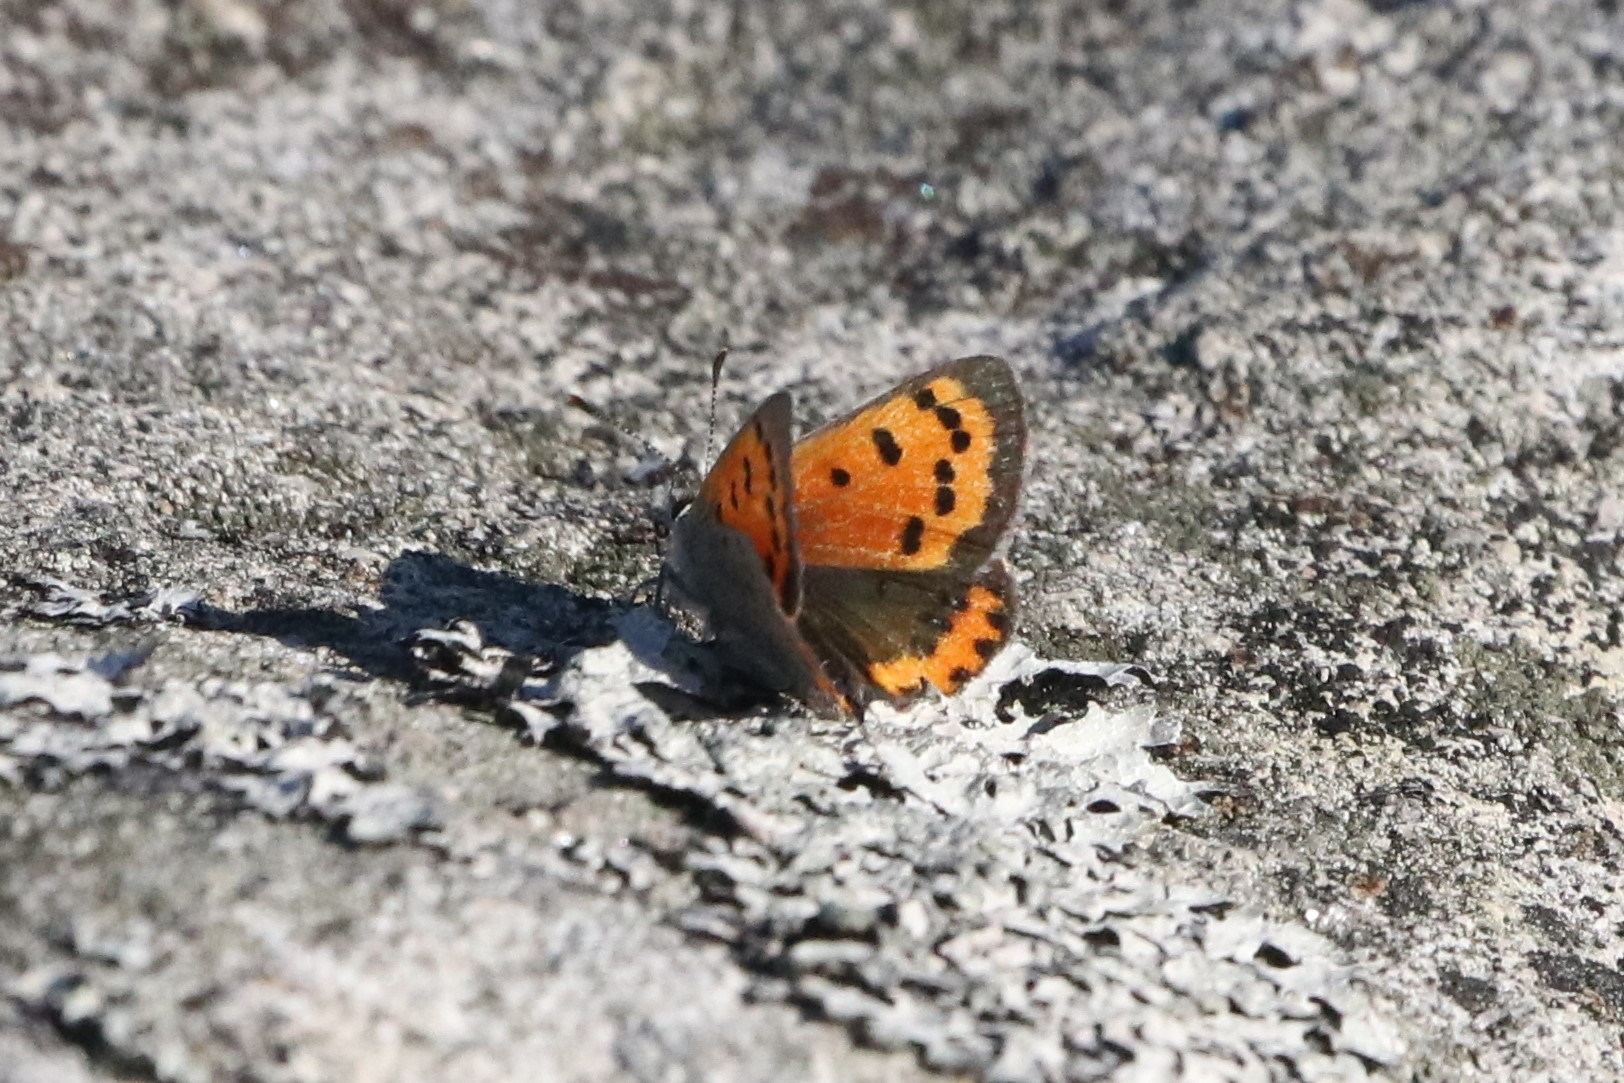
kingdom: Animalia
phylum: Arthropoda
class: Insecta
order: Lepidoptera
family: Lycaenidae
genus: Lycaena
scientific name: Lycaena hypophlaeas
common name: American copper
